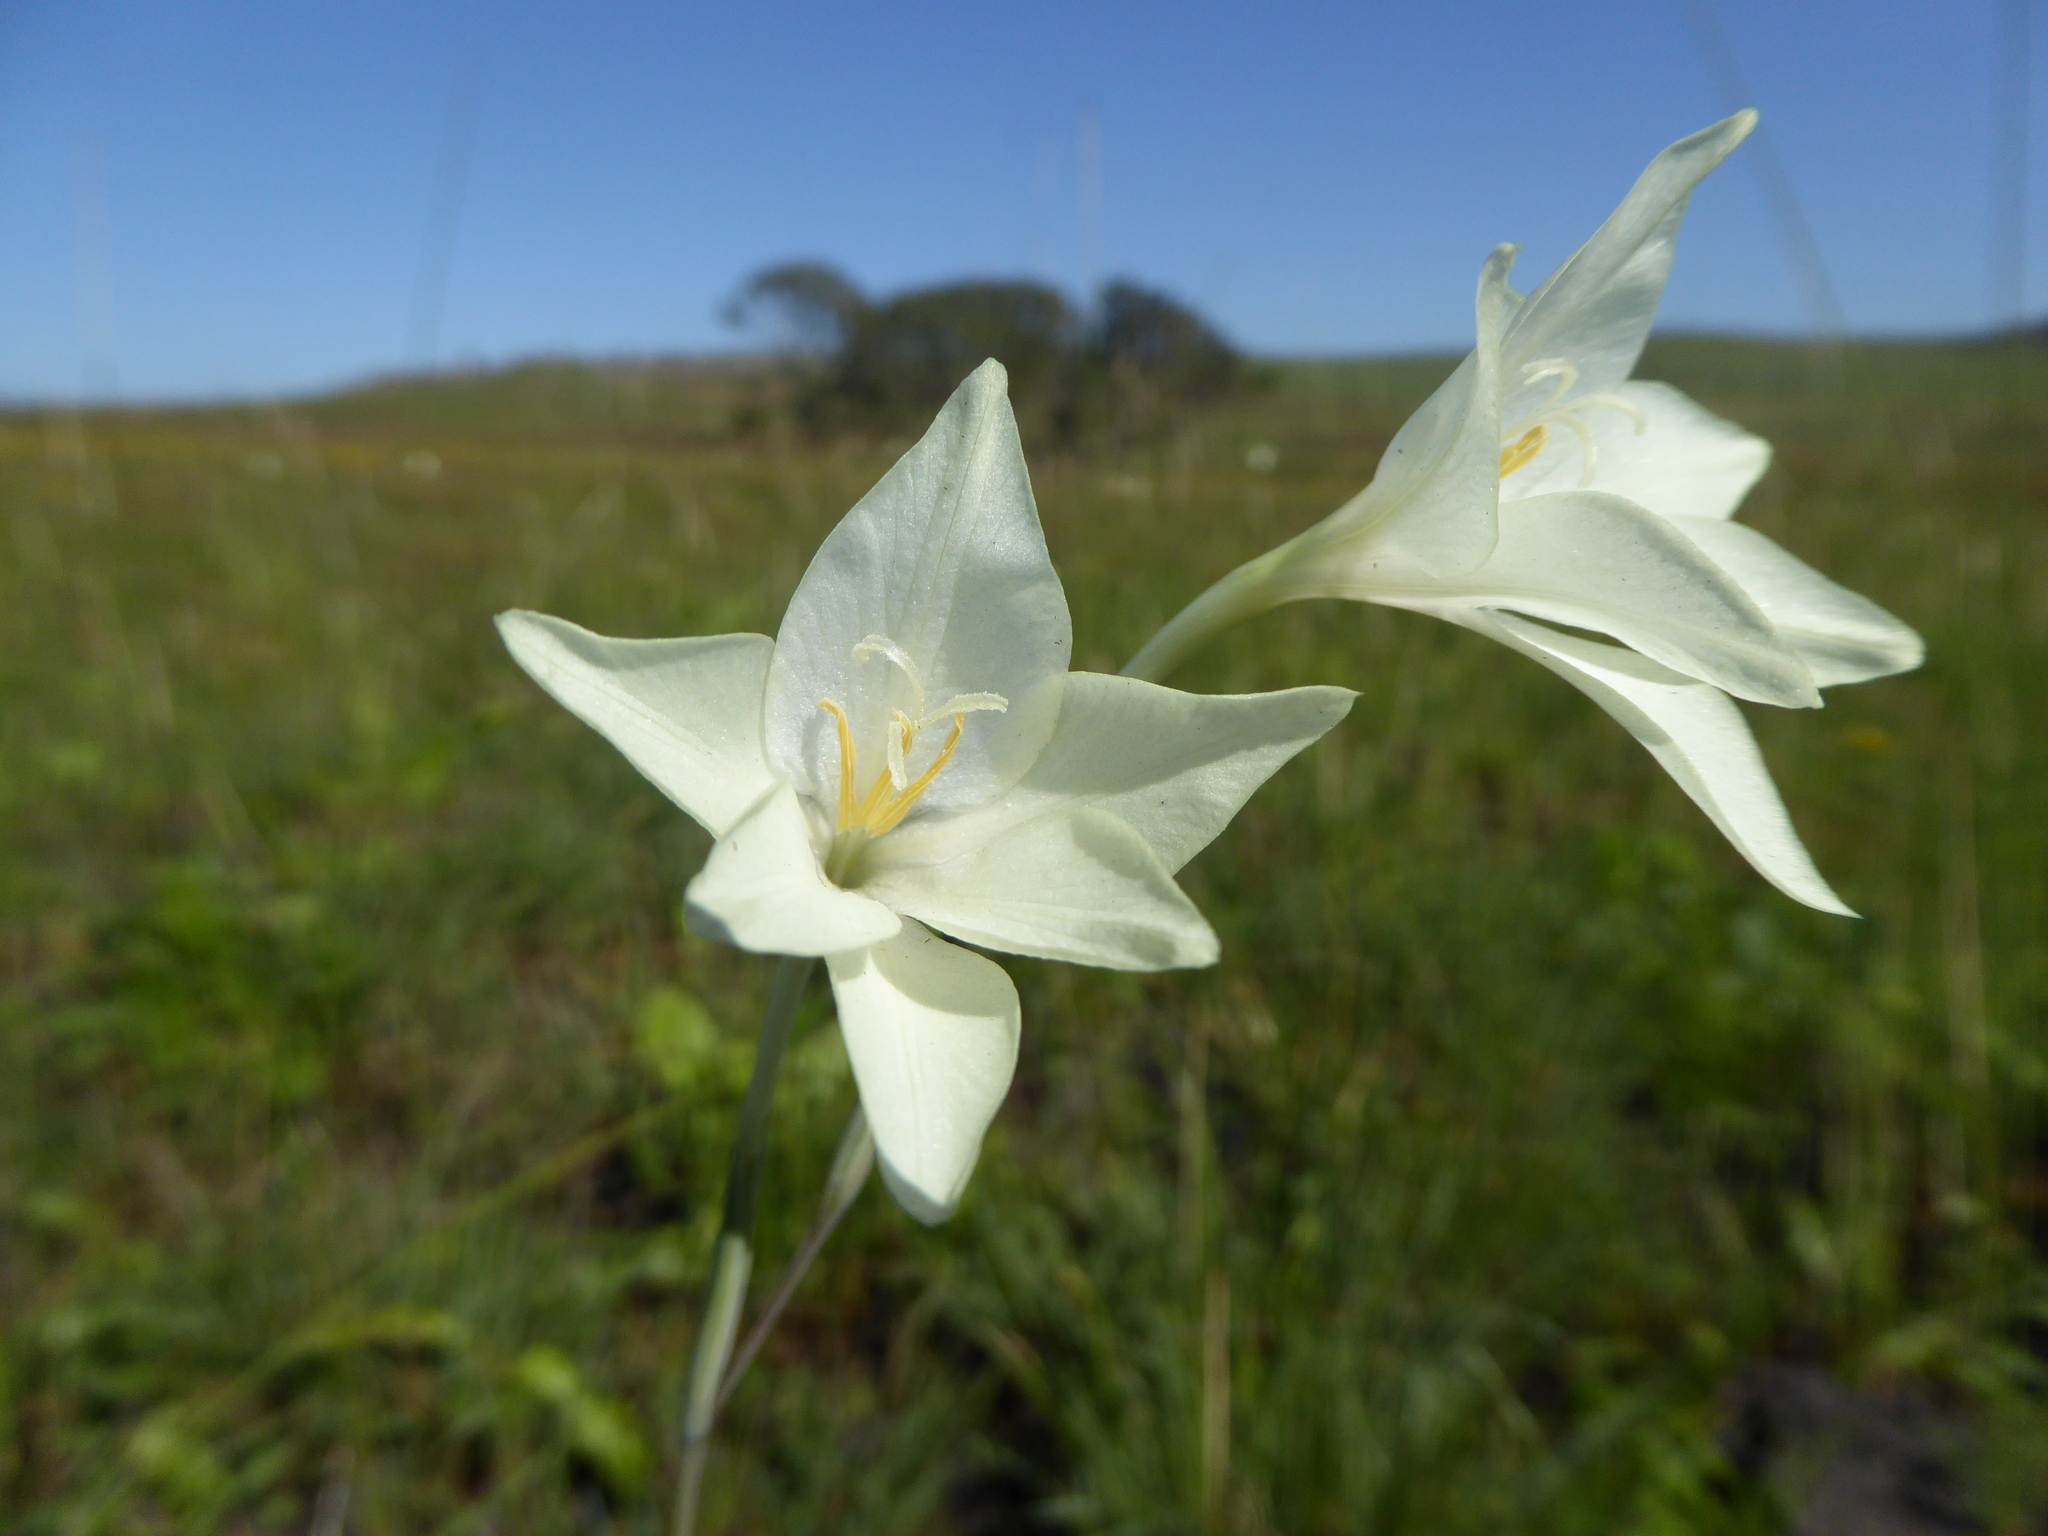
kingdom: Plantae
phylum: Tracheophyta
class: Liliopsida
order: Asparagales
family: Iridaceae
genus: Gladiolus
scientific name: Gladiolus longicollis
